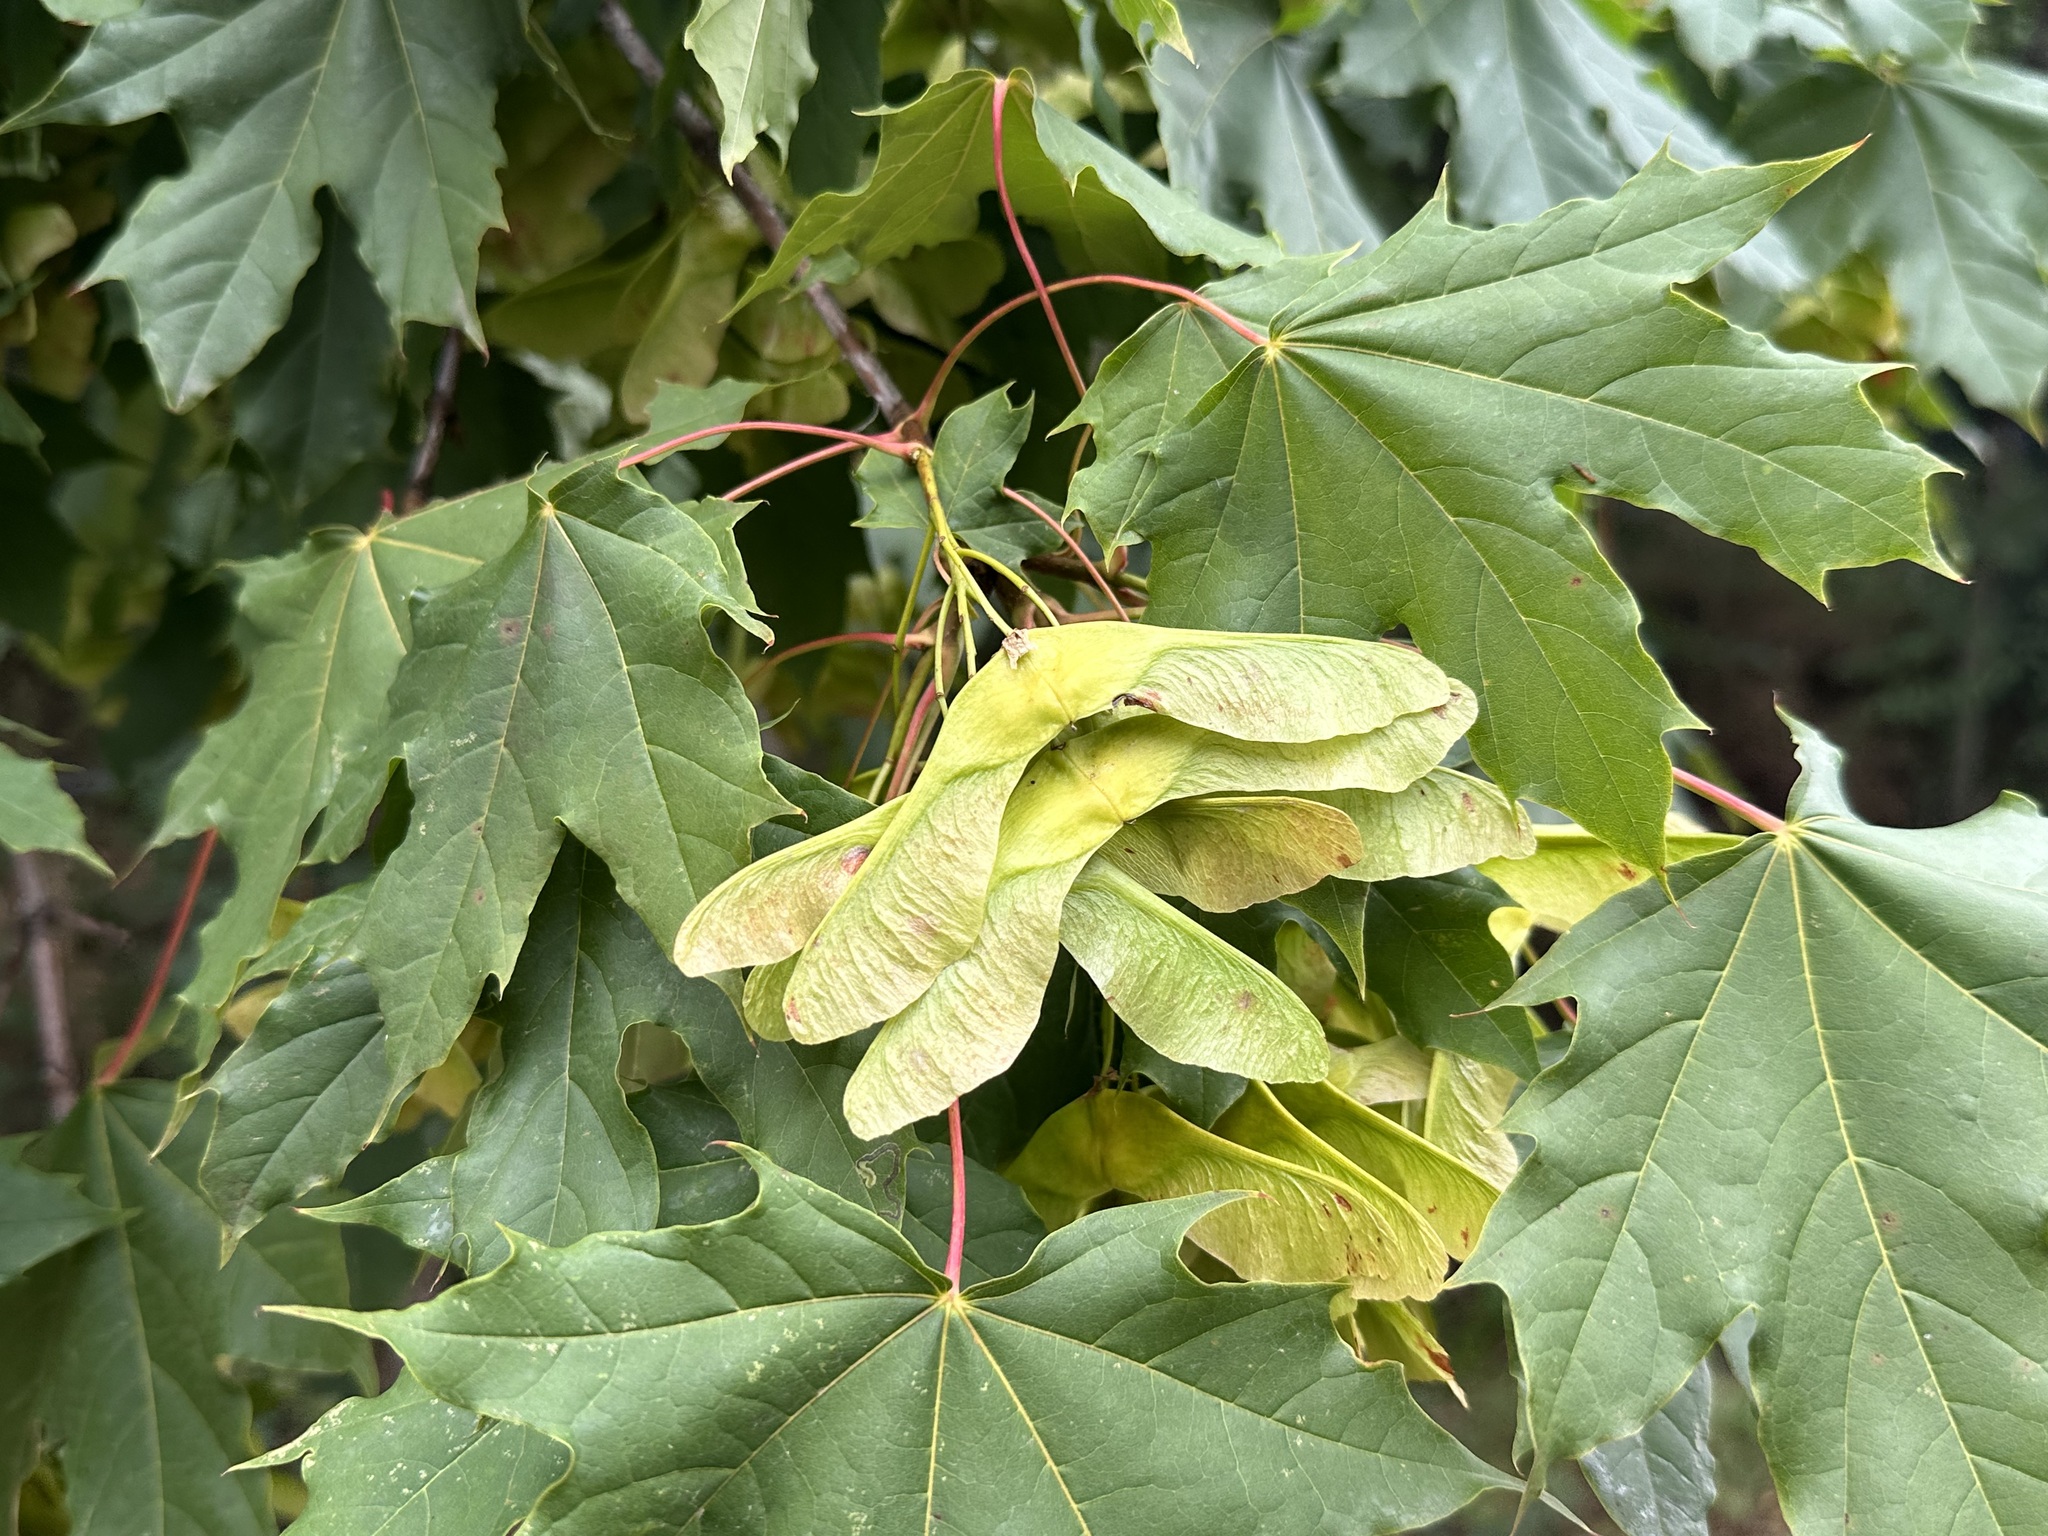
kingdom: Plantae
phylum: Tracheophyta
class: Magnoliopsida
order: Sapindales
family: Sapindaceae
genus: Acer
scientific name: Acer platanoides
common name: Norway maple
